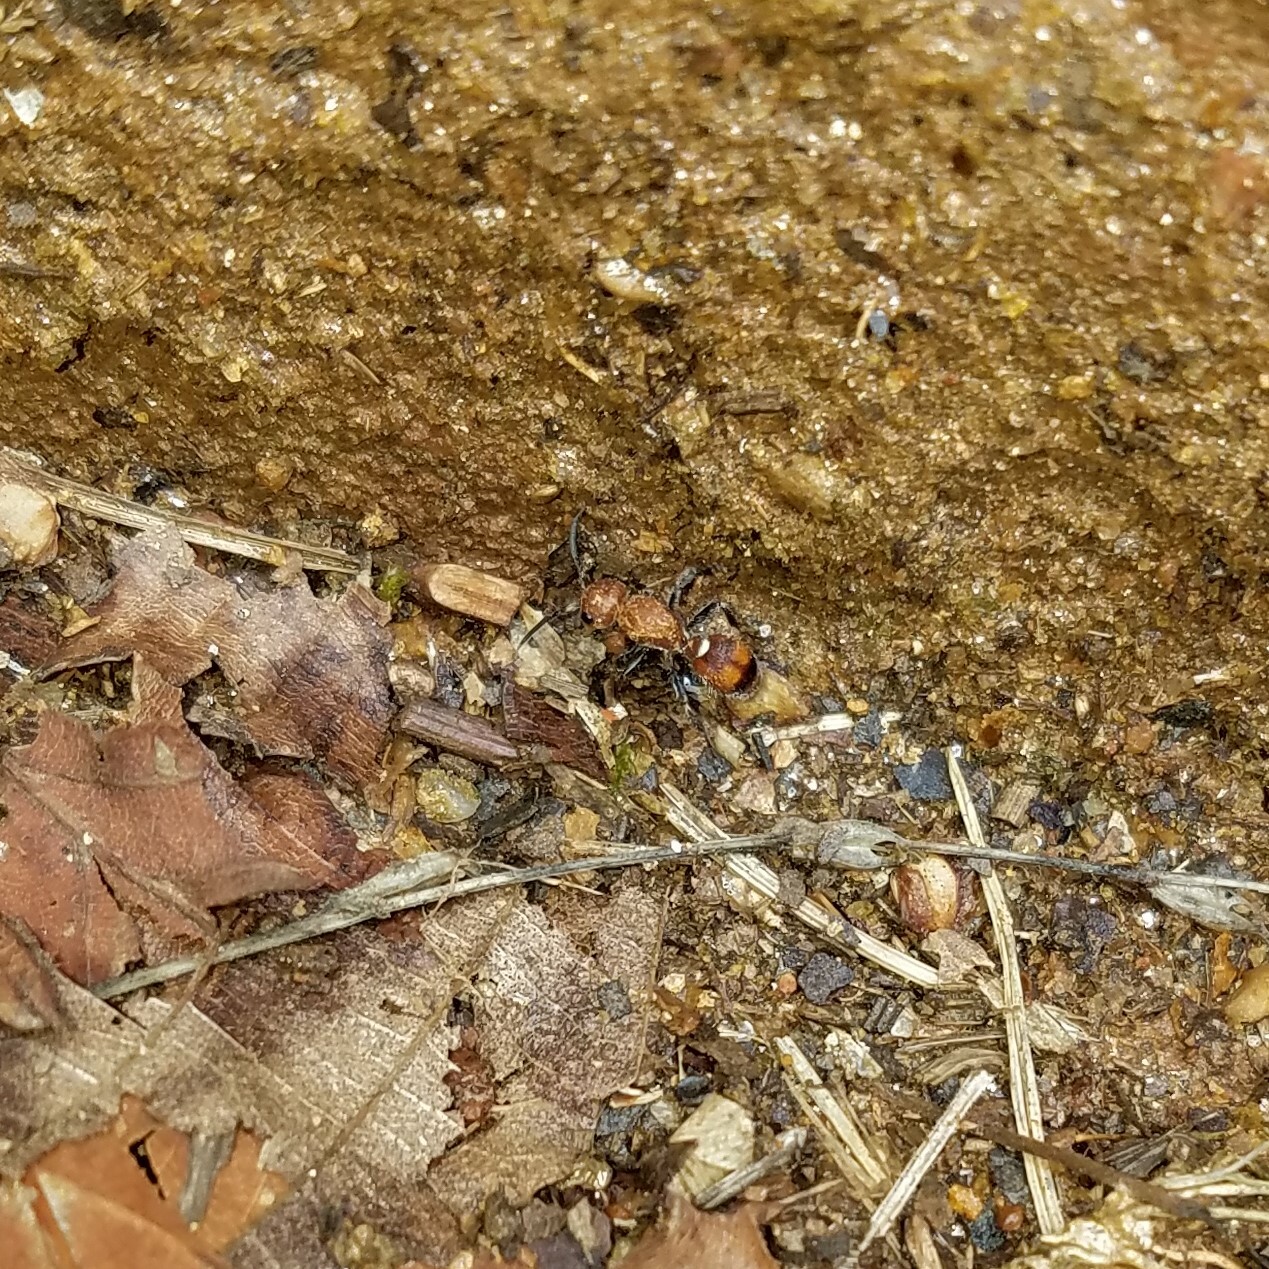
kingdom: Animalia
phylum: Arthropoda
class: Insecta
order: Hymenoptera
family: Mutillidae
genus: Dasymutilla
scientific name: Dasymutilla
